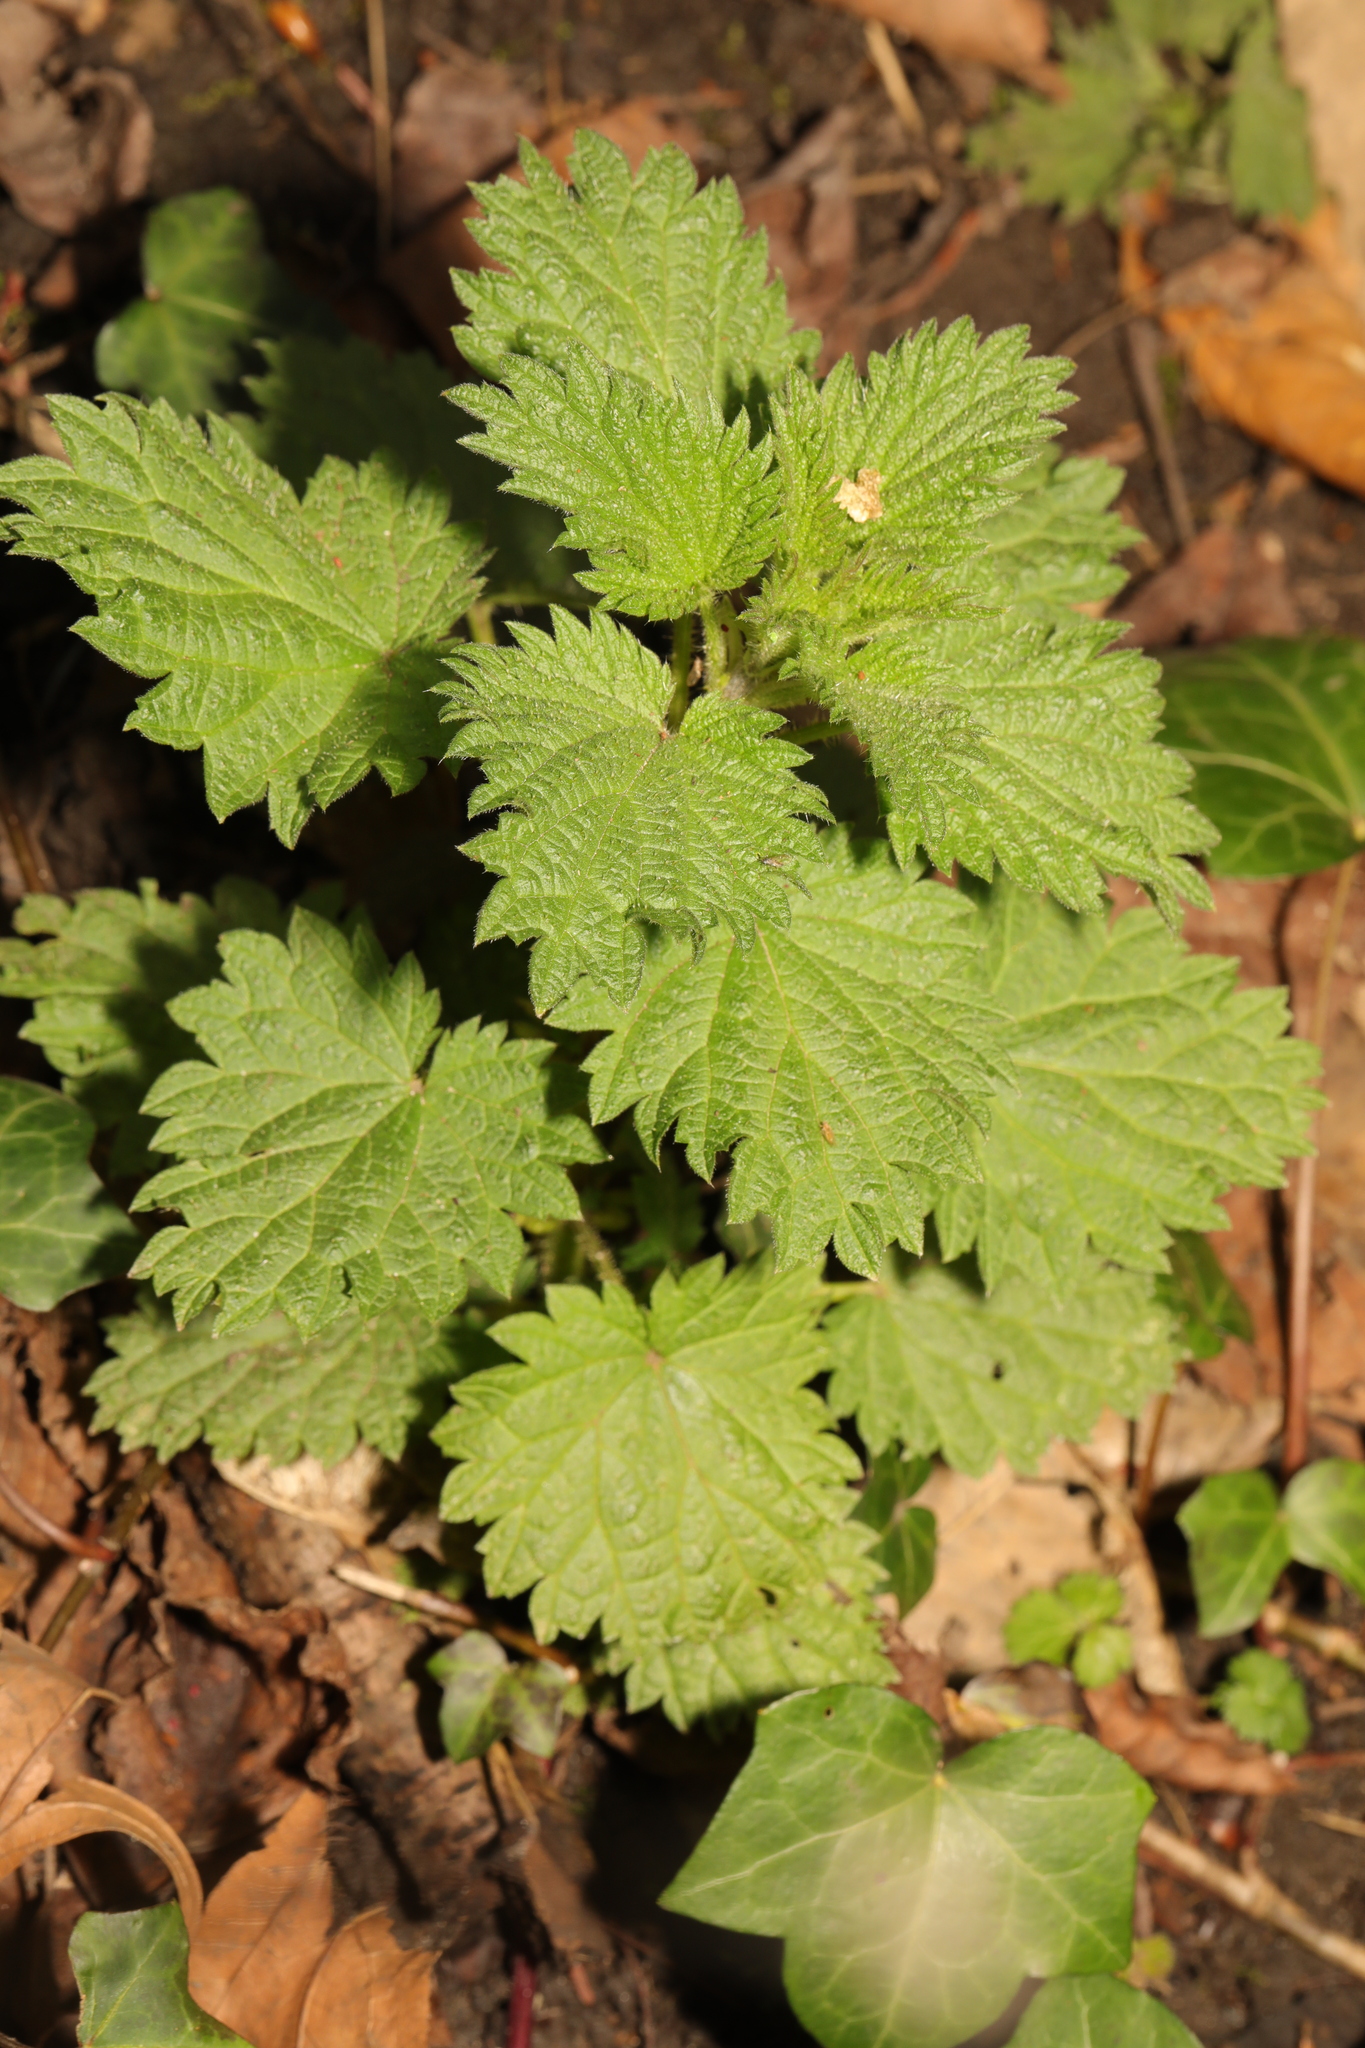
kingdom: Plantae
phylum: Tracheophyta
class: Magnoliopsida
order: Rosales
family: Urticaceae
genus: Urtica
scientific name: Urtica dioica
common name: Common nettle
